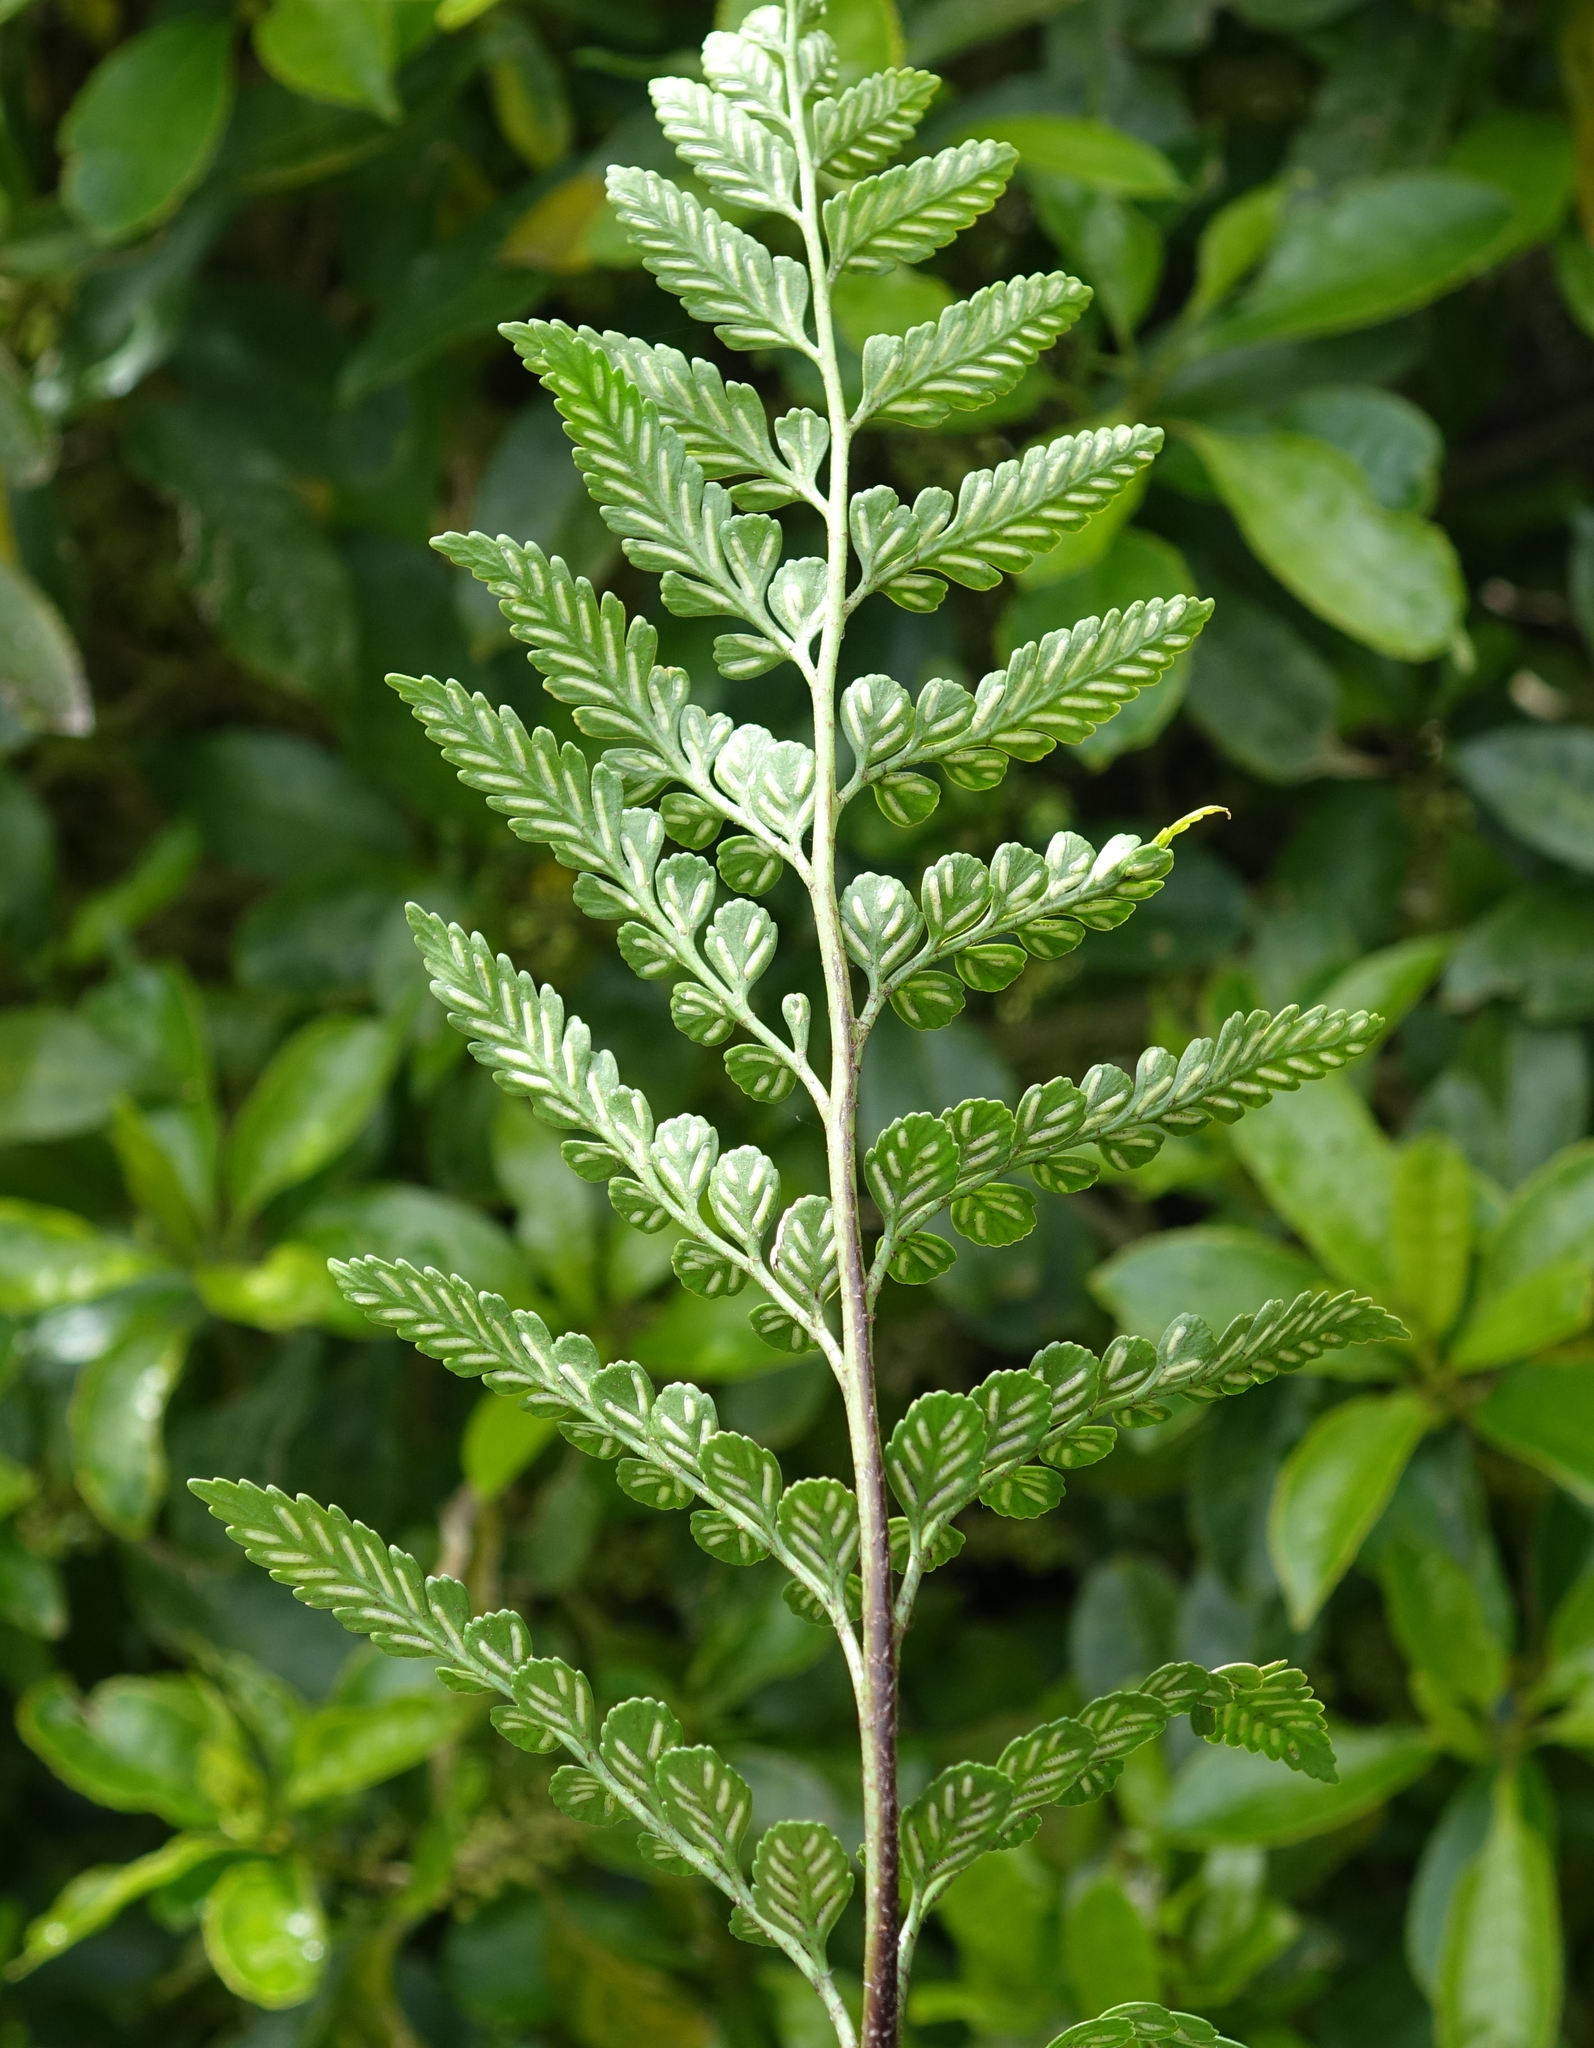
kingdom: Plantae
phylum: Tracheophyta
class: Polypodiopsida
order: Polypodiales
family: Aspleniaceae
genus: Asplenium
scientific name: Asplenium lyallii
